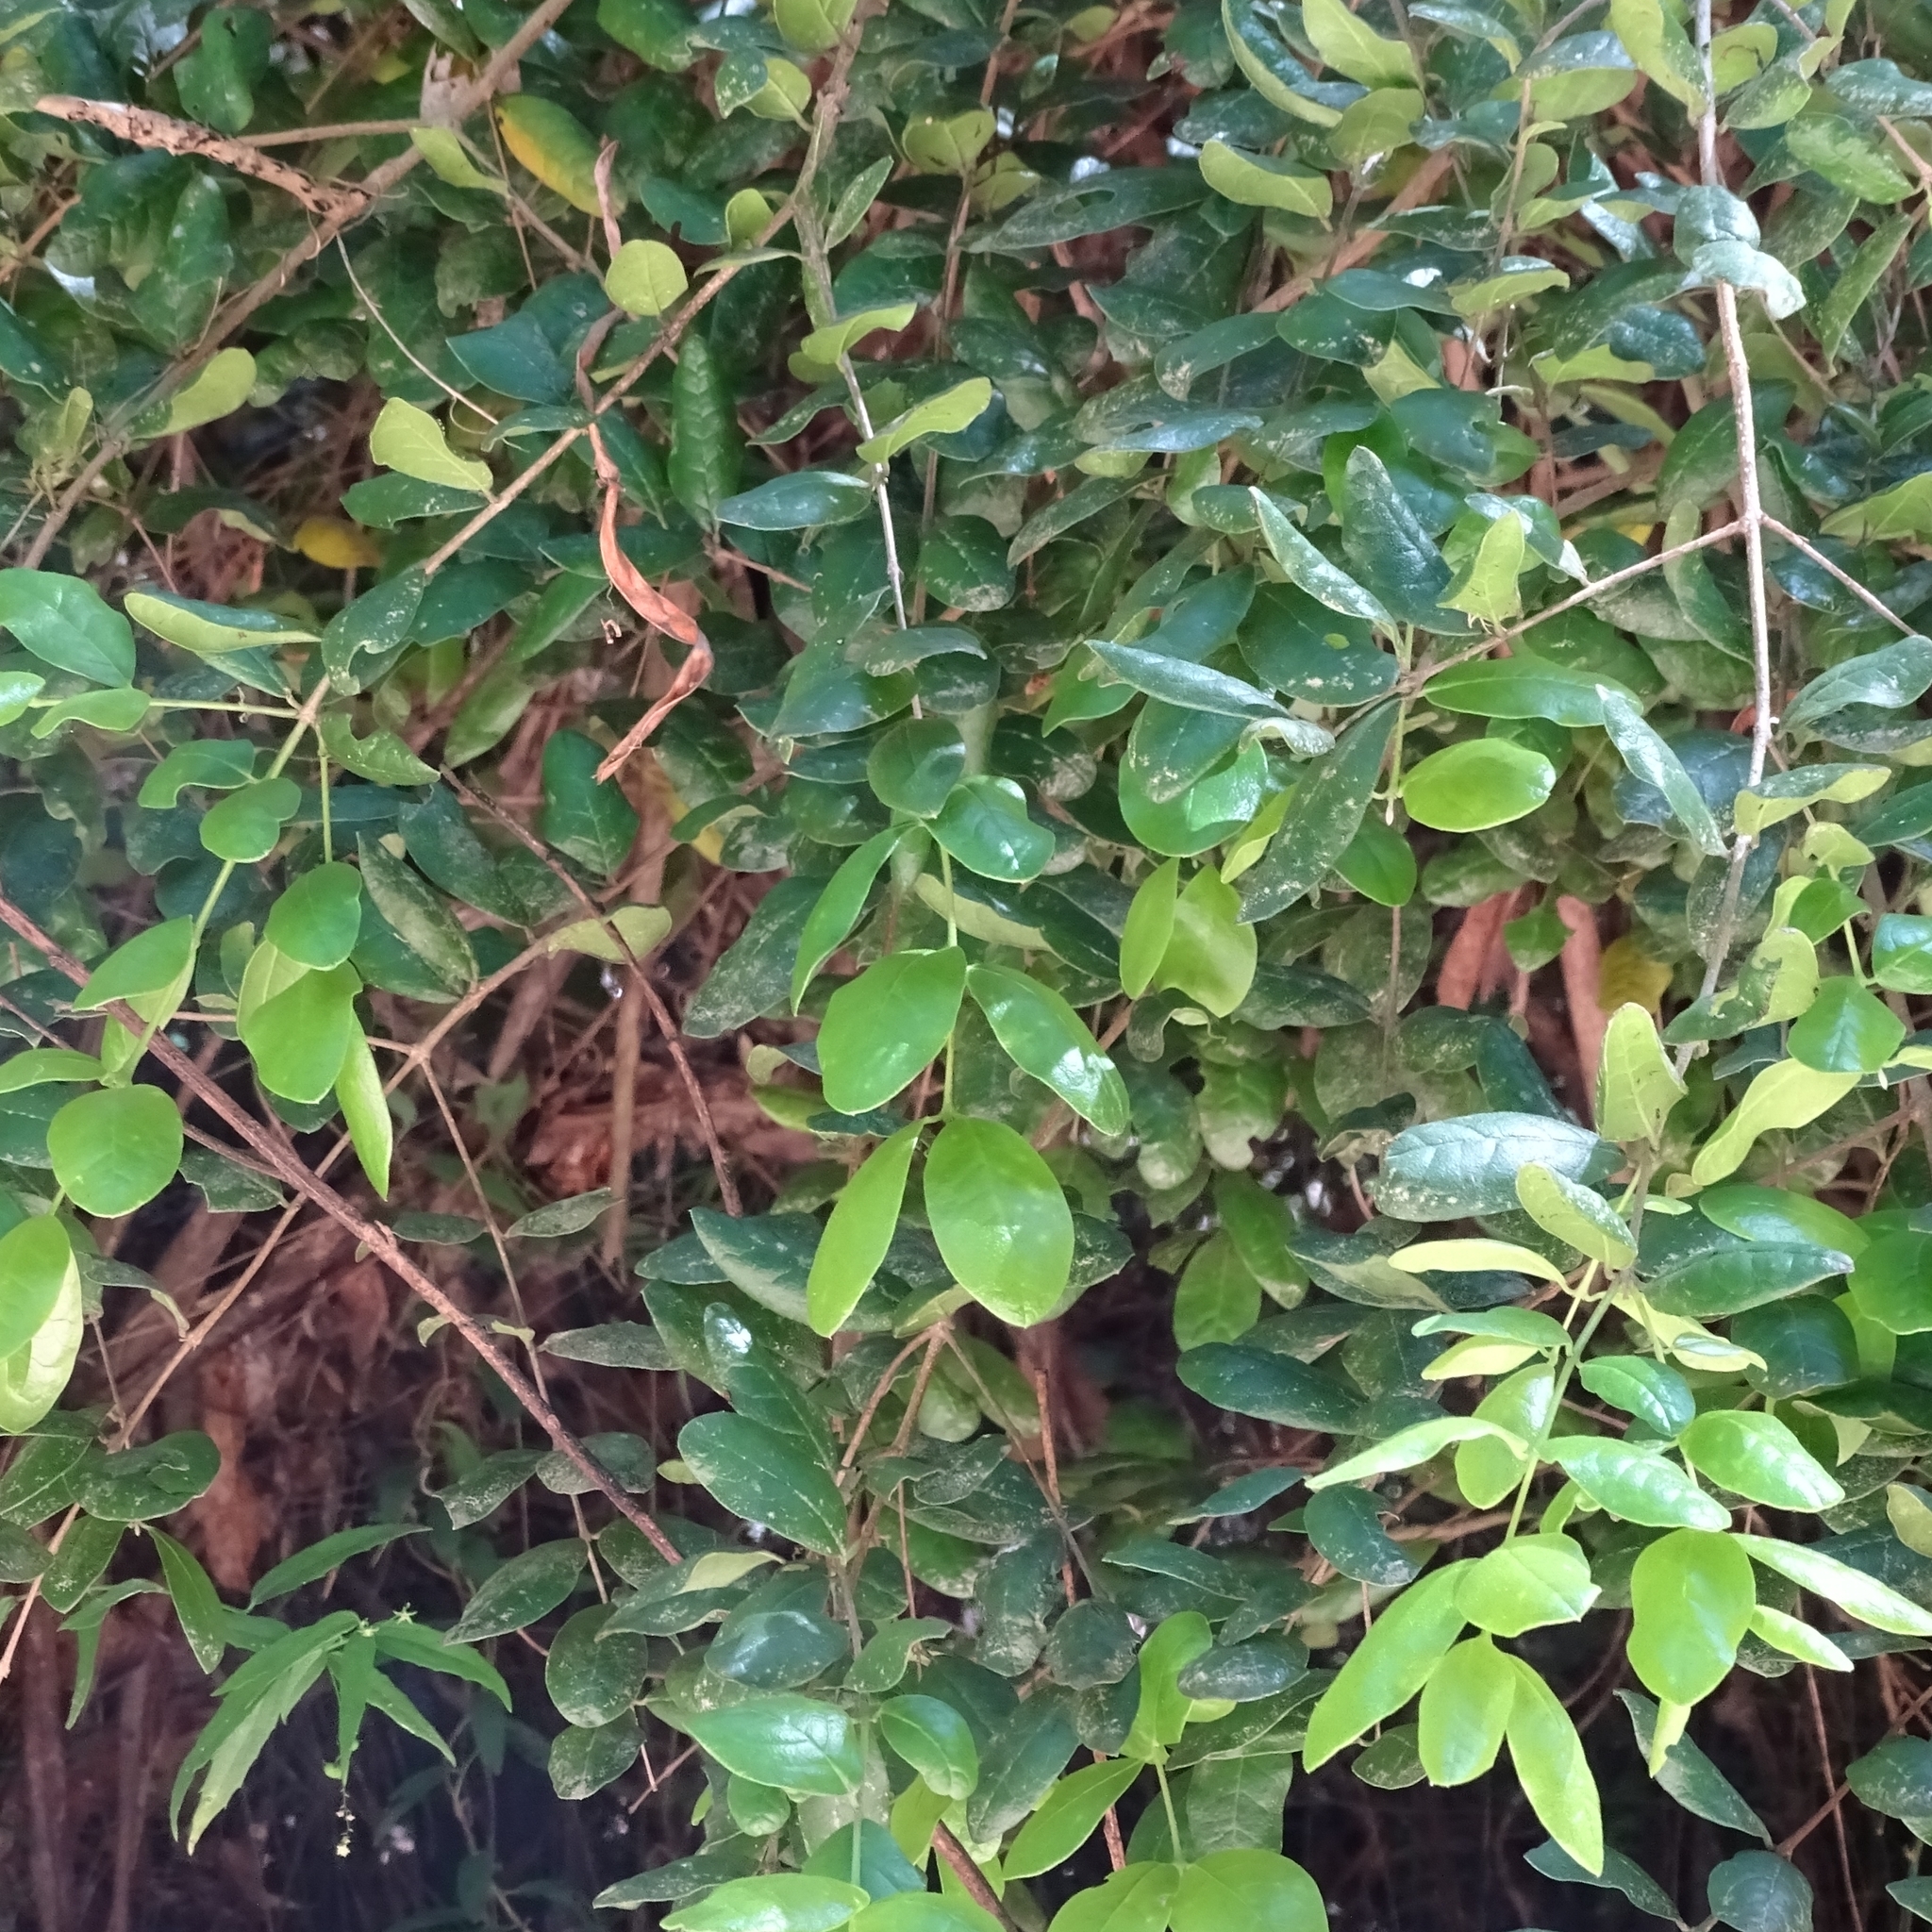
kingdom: Plantae
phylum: Tracheophyta
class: Magnoliopsida
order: Laurales
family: Monimiaceae
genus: Peumus
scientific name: Peumus boldus
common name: Boldo
